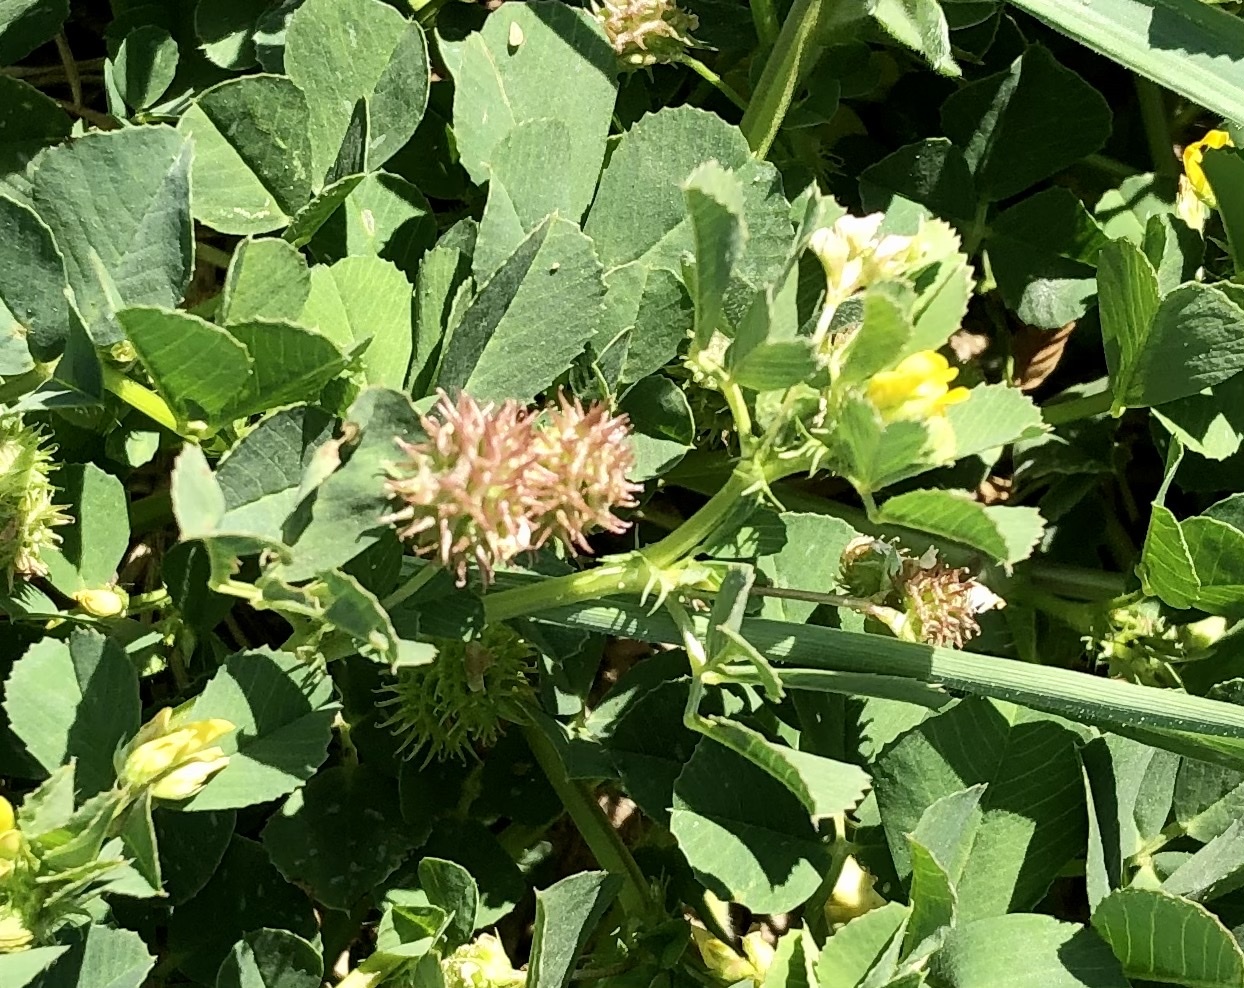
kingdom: Plantae
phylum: Tracheophyta
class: Magnoliopsida
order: Fabales
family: Fabaceae
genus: Medicago
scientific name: Medicago polymorpha
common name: Burclover
